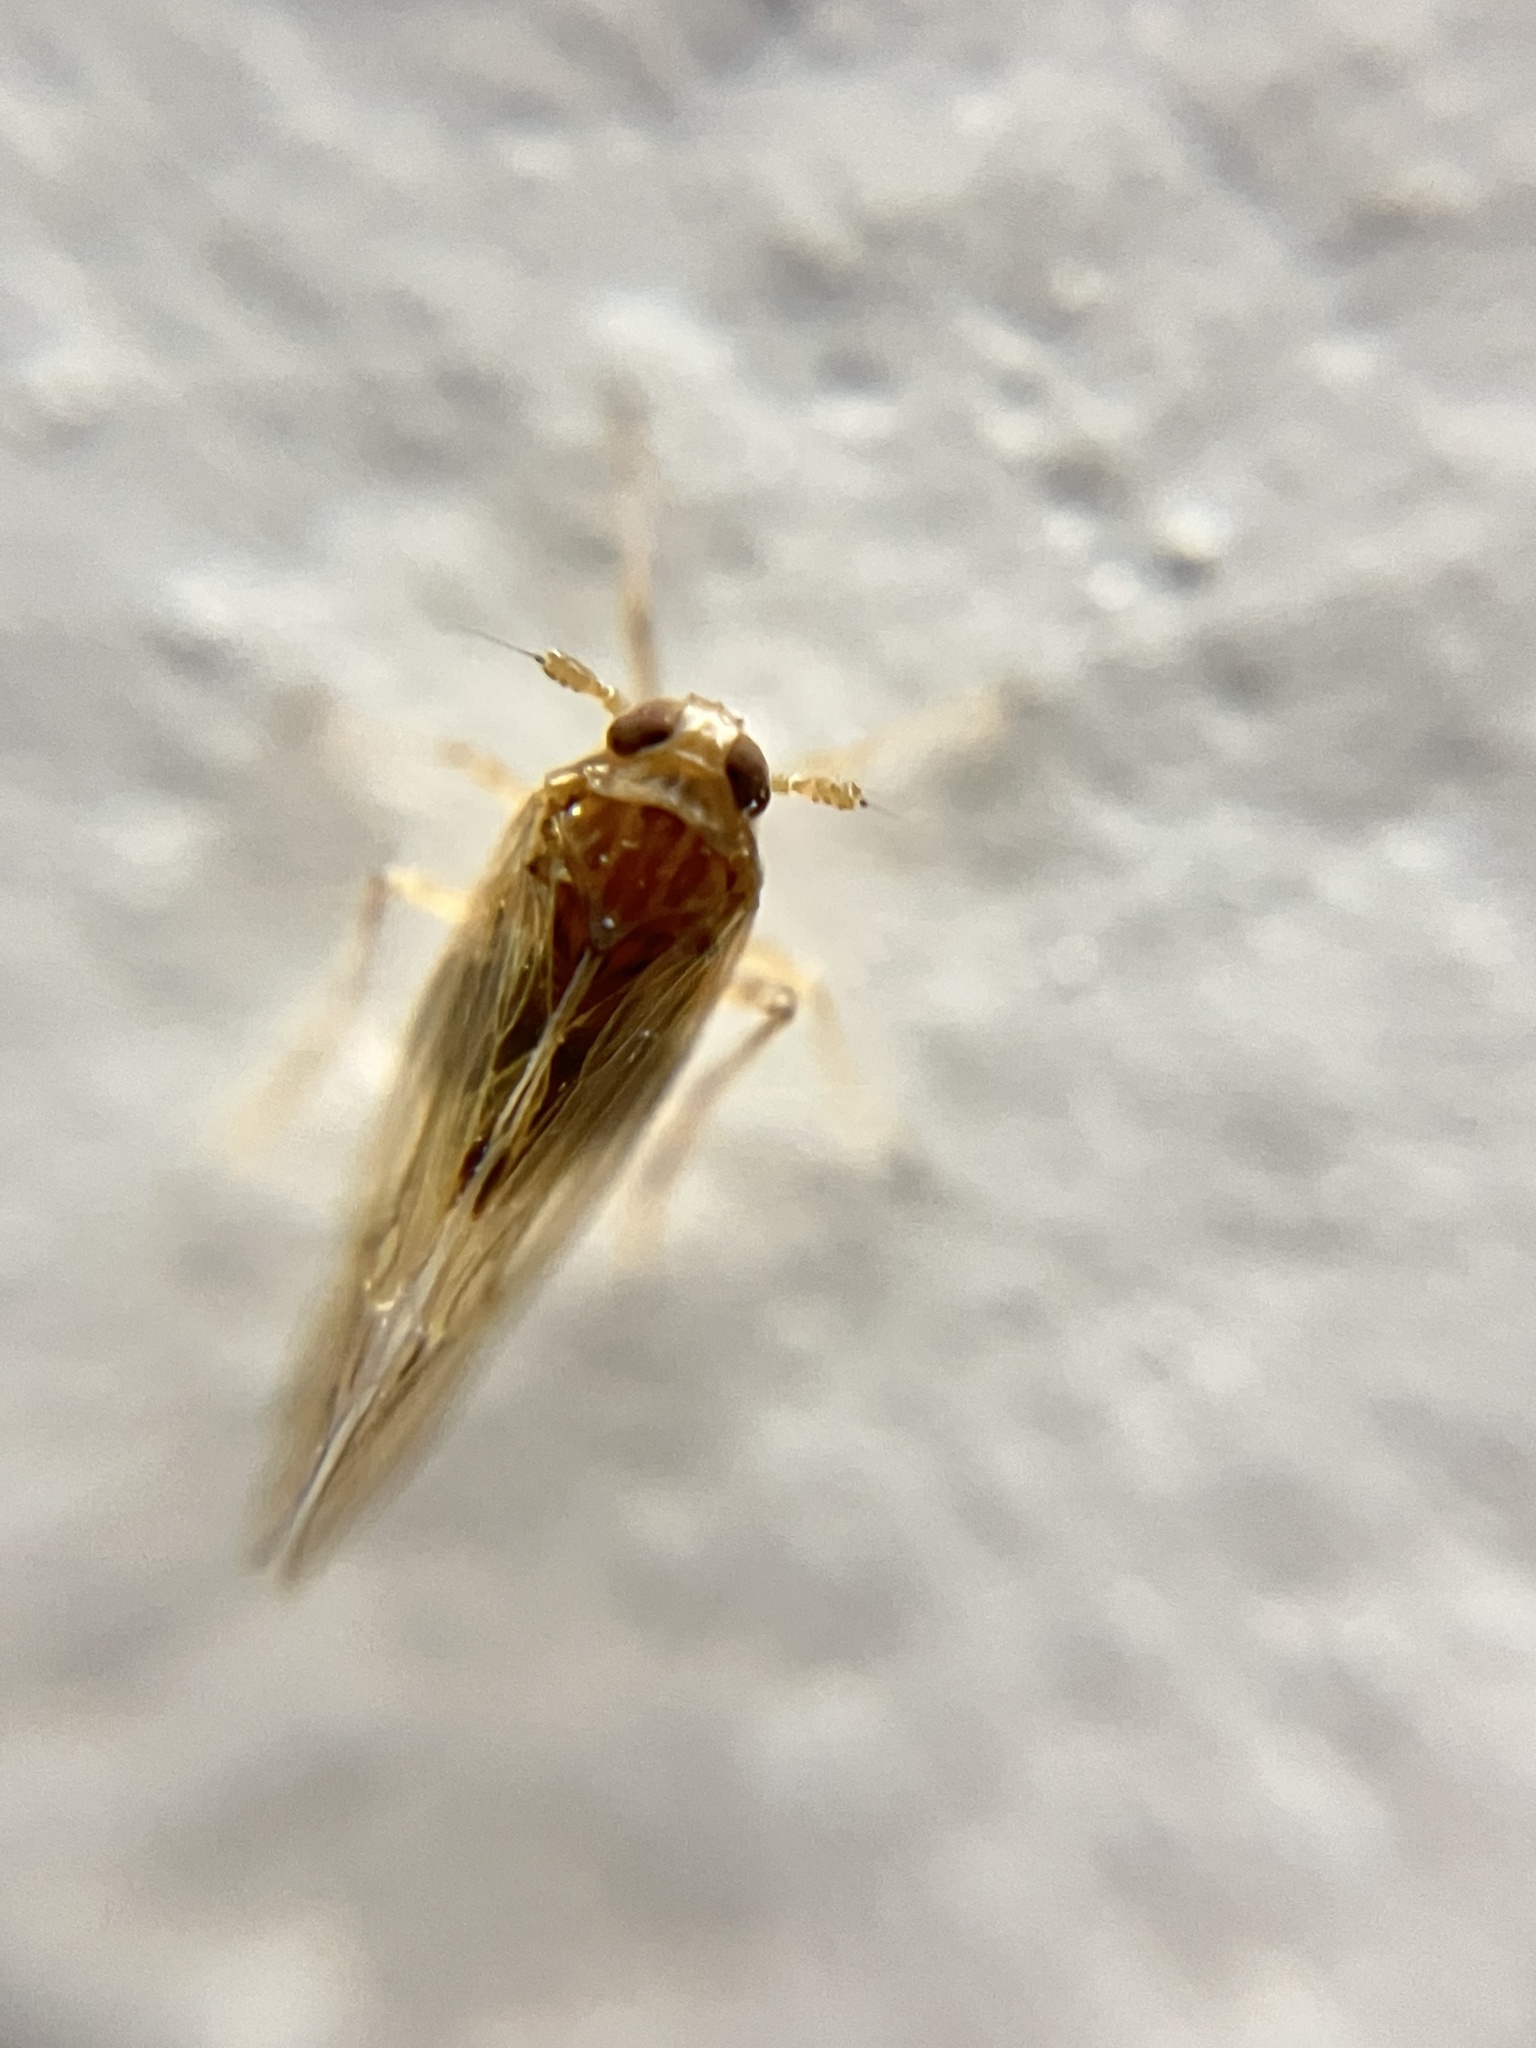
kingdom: Animalia
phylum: Arthropoda
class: Insecta
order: Hemiptera
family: Delphacidae
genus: Nilaparvata
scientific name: Nilaparvata lugens
